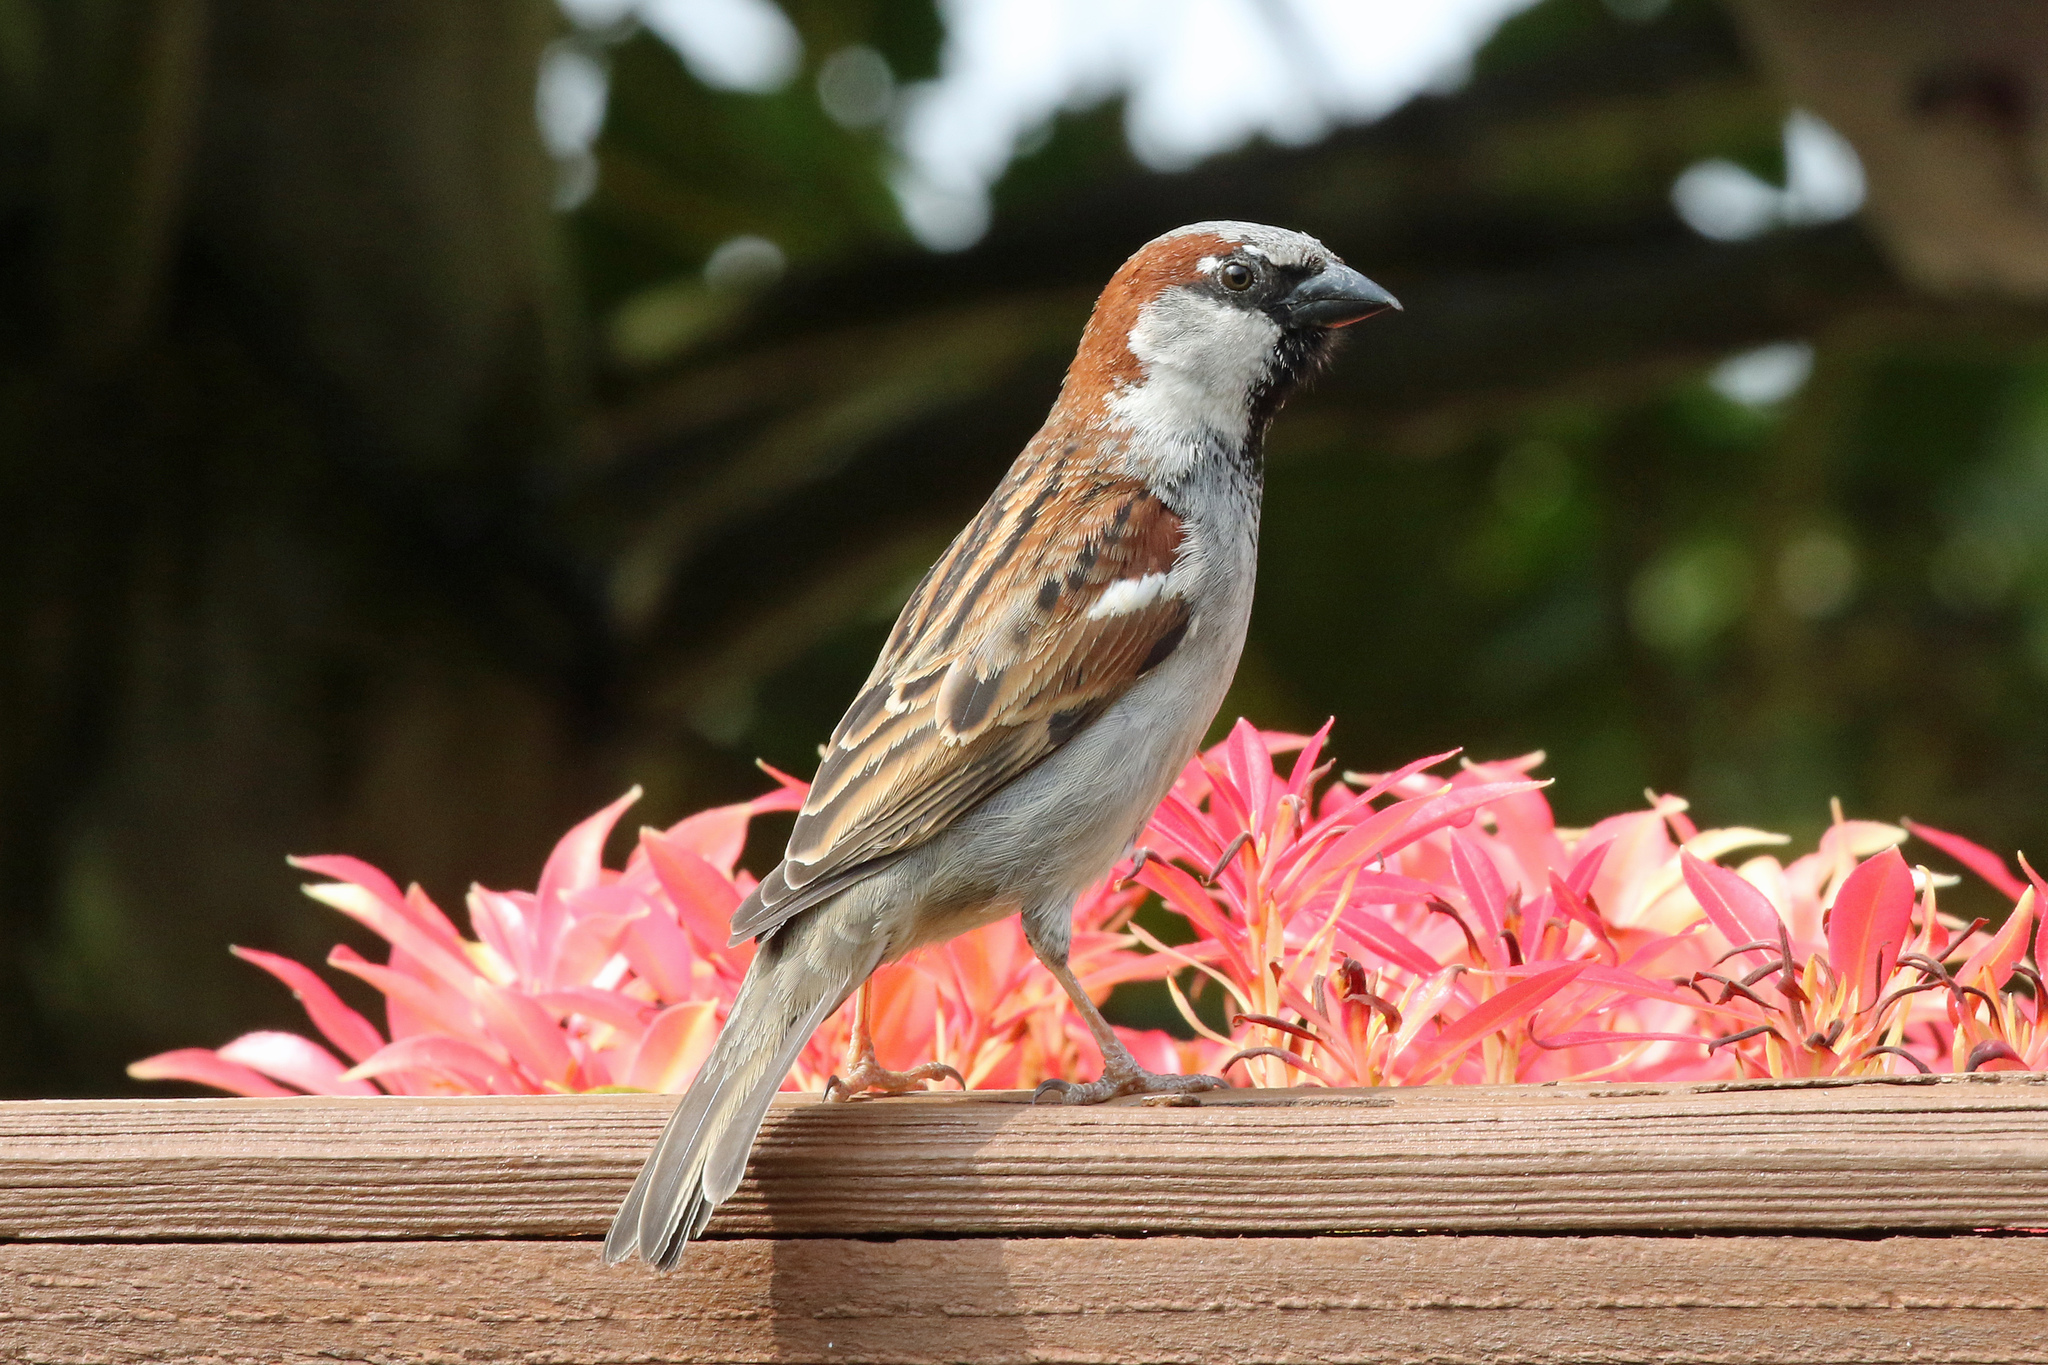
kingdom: Animalia
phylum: Chordata
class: Aves
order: Passeriformes
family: Passeridae
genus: Passer
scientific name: Passer domesticus
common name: House sparrow
